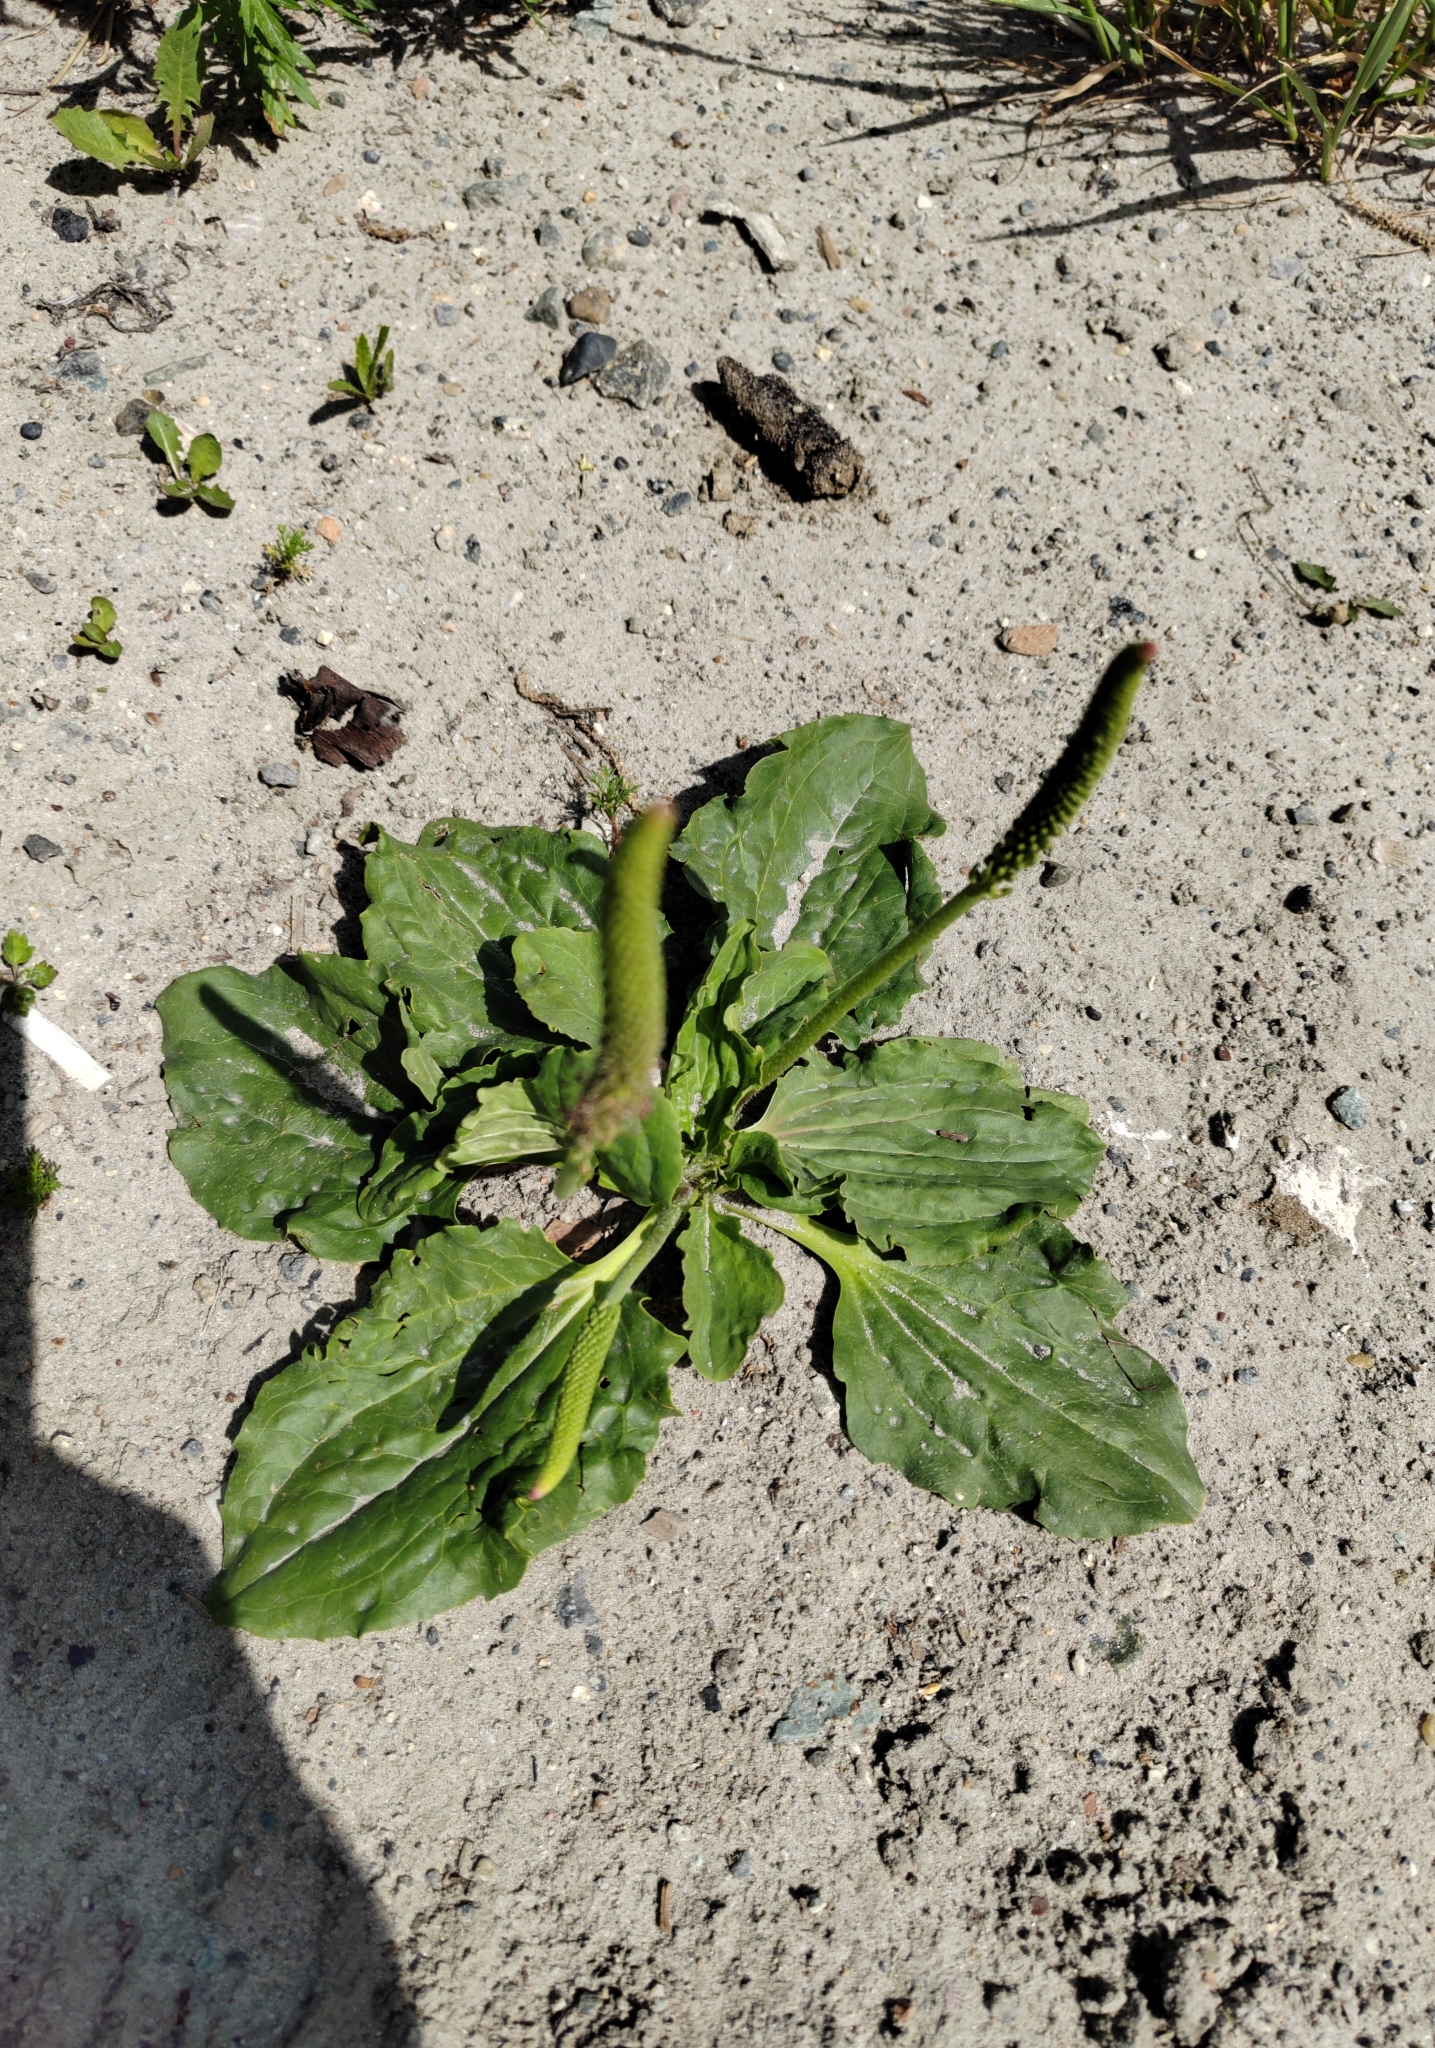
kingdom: Plantae
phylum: Tracheophyta
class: Magnoliopsida
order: Lamiales
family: Plantaginaceae
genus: Plantago
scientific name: Plantago major
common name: Common plantain
